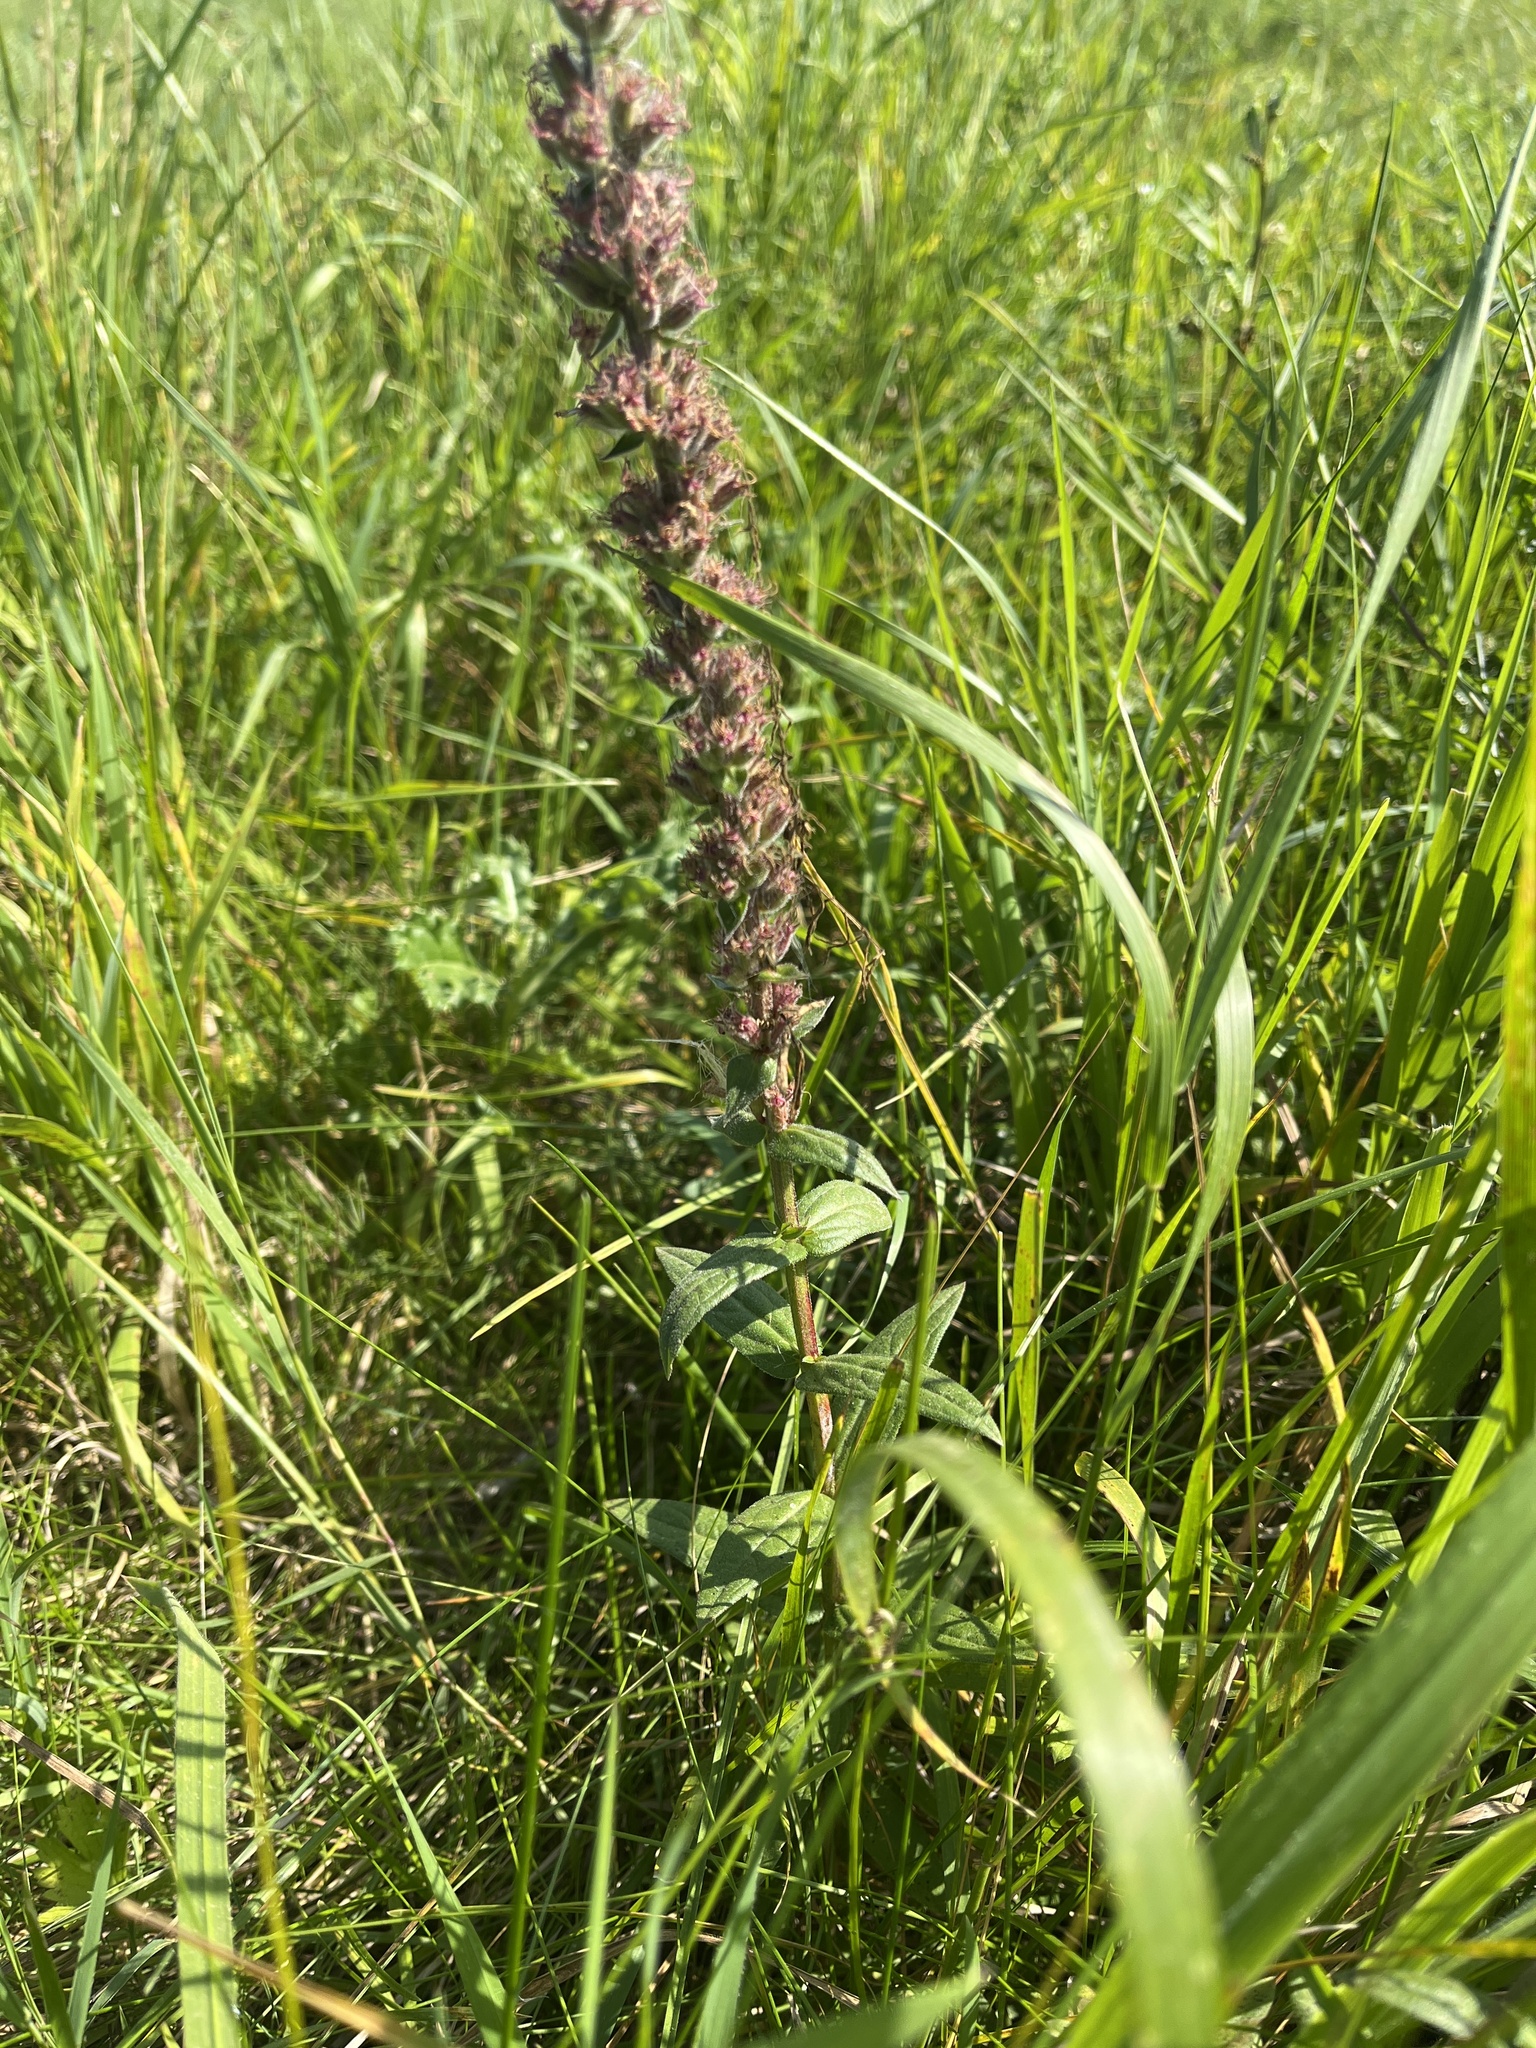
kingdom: Plantae
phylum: Tracheophyta
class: Magnoliopsida
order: Myrtales
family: Lythraceae
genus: Lythrum
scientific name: Lythrum salicaria
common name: Purple loosestrife
